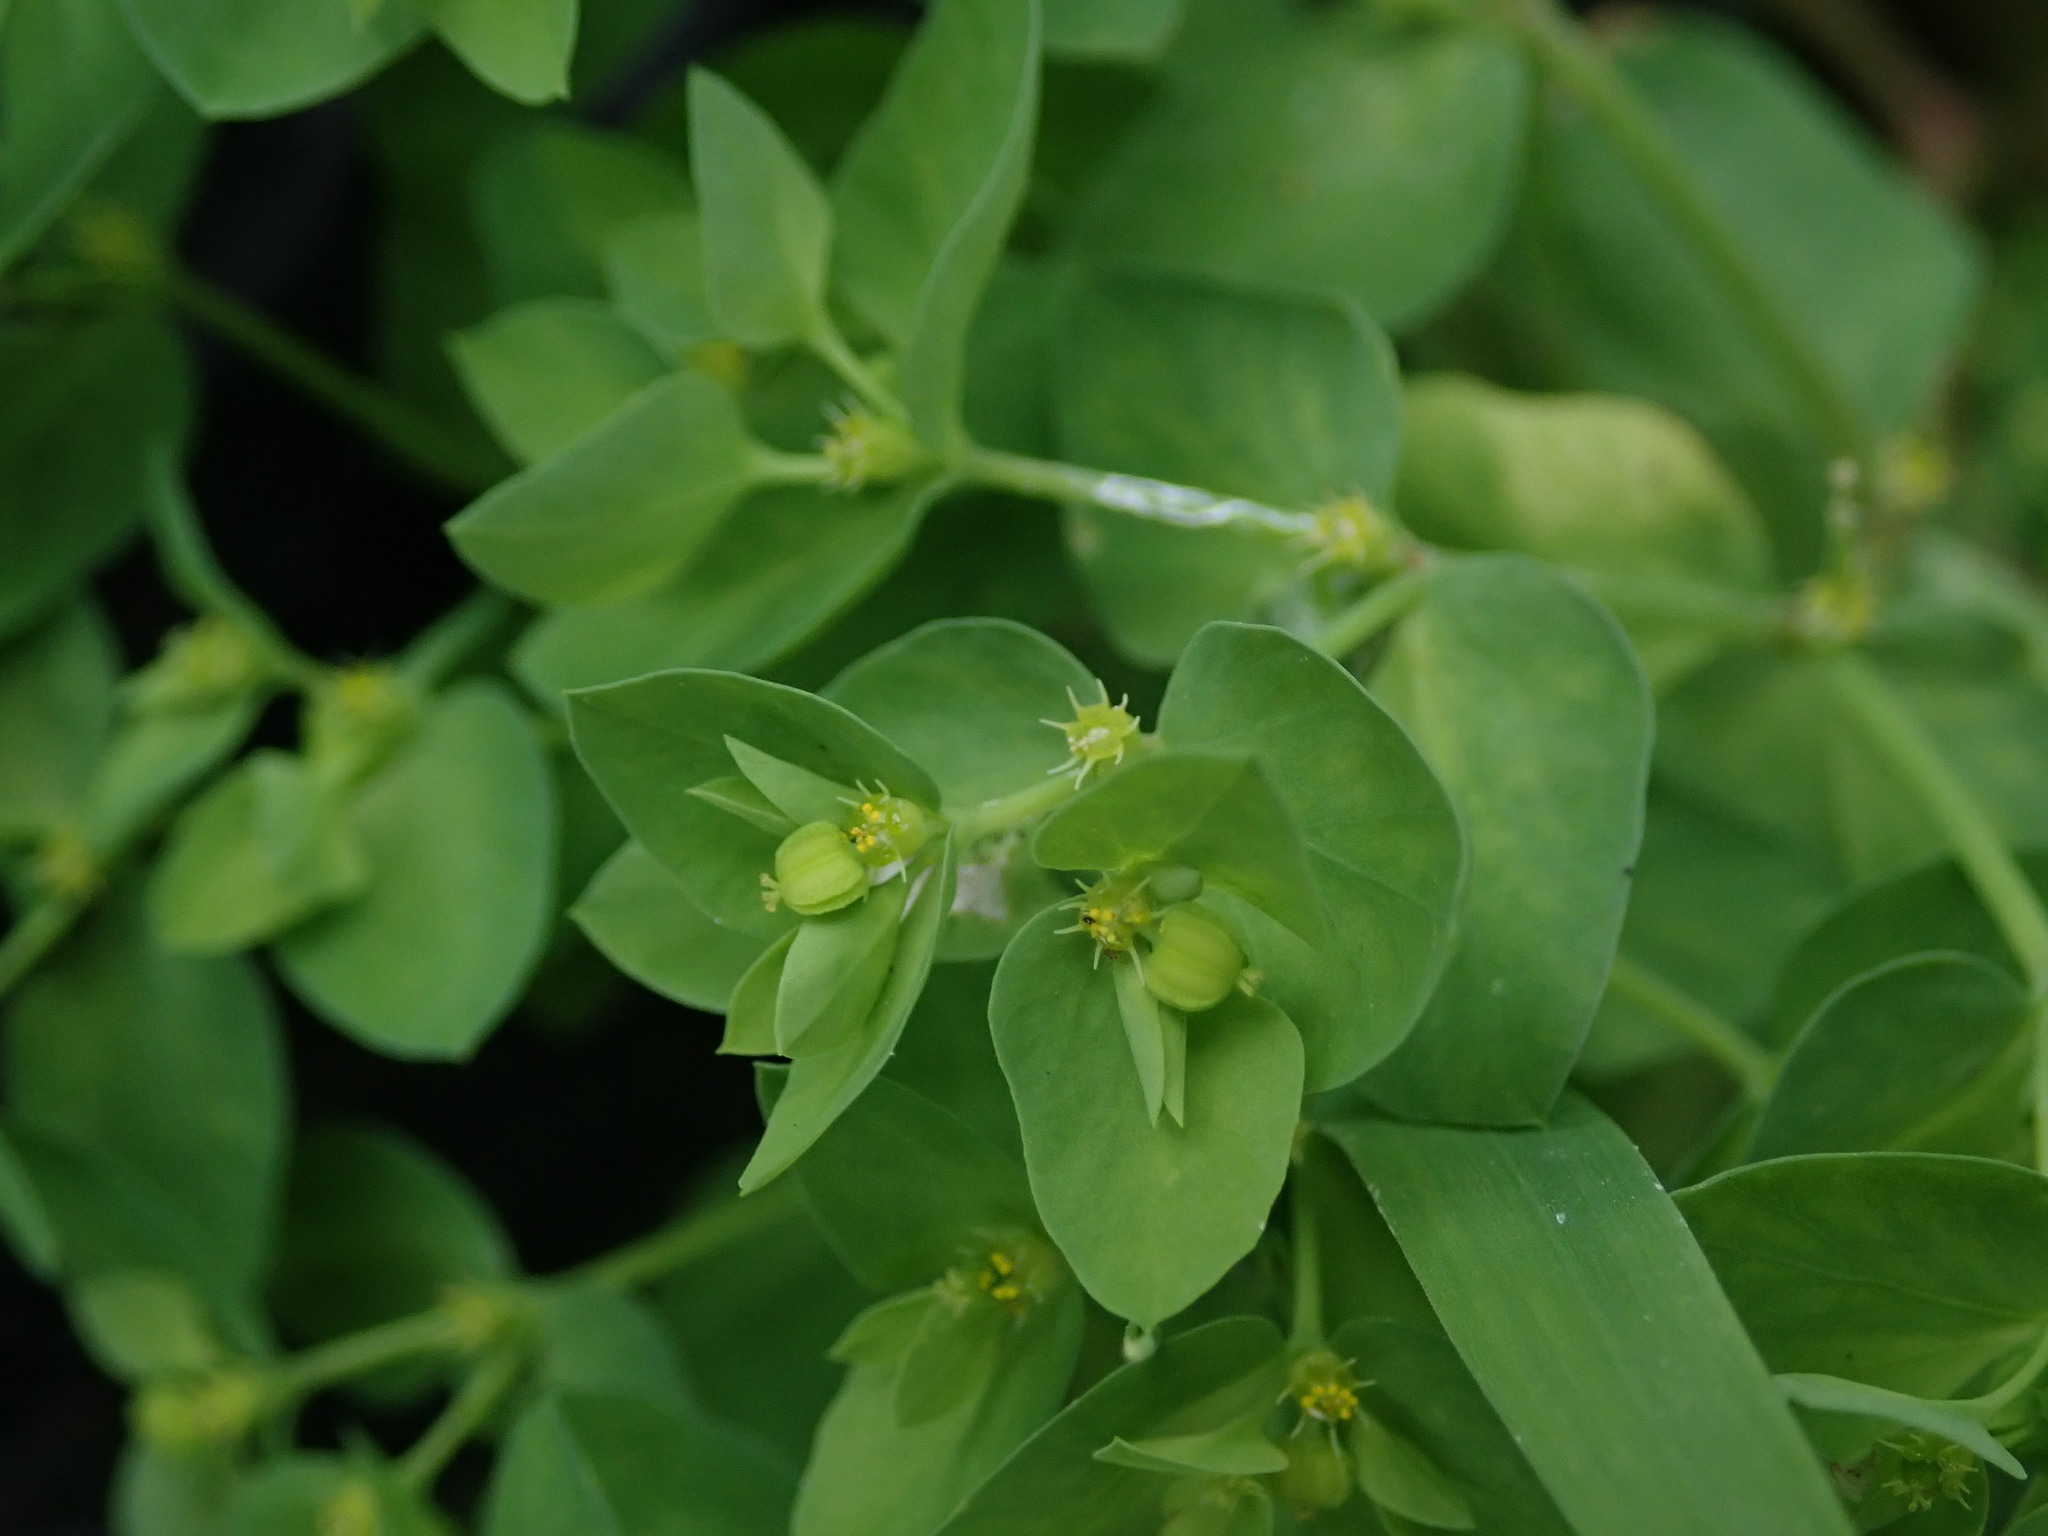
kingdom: Plantae
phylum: Tracheophyta
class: Magnoliopsida
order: Malpighiales
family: Euphorbiaceae
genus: Euphorbia
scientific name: Euphorbia peplus
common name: Petty spurge
